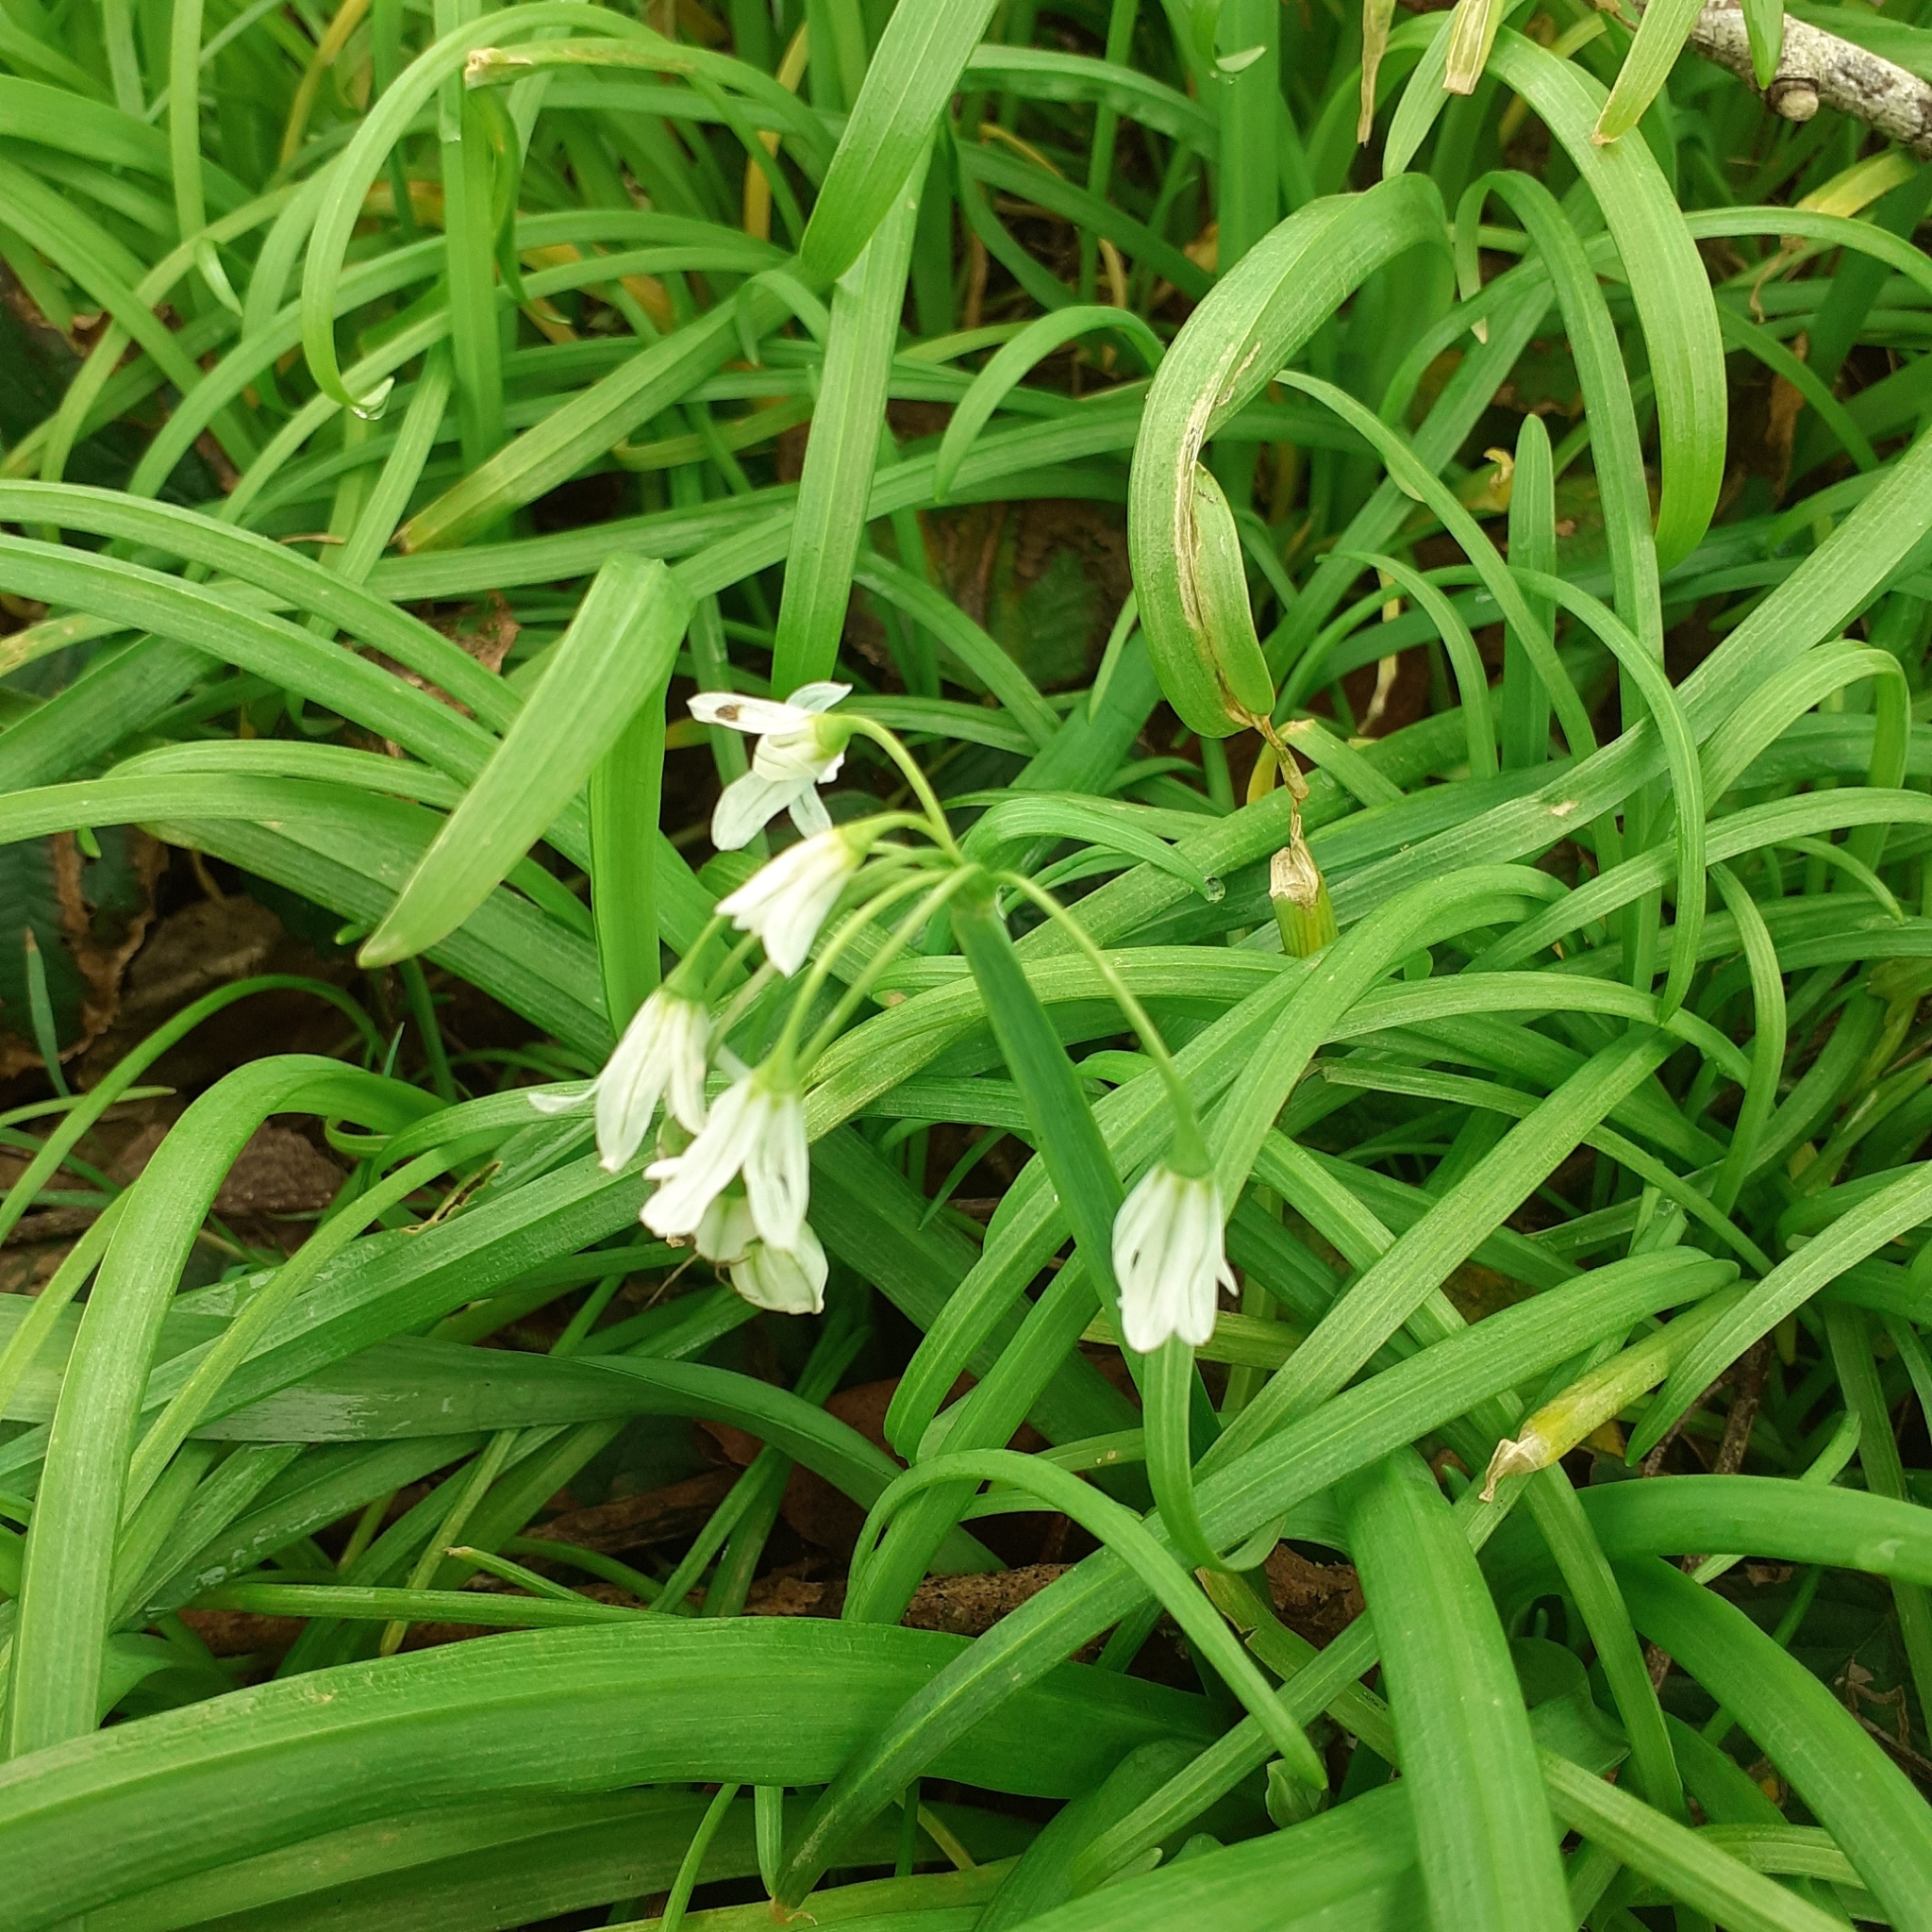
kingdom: Plantae
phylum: Tracheophyta
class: Liliopsida
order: Asparagales
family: Amaryllidaceae
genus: Allium
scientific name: Allium triquetrum
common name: Three-cornered garlic
